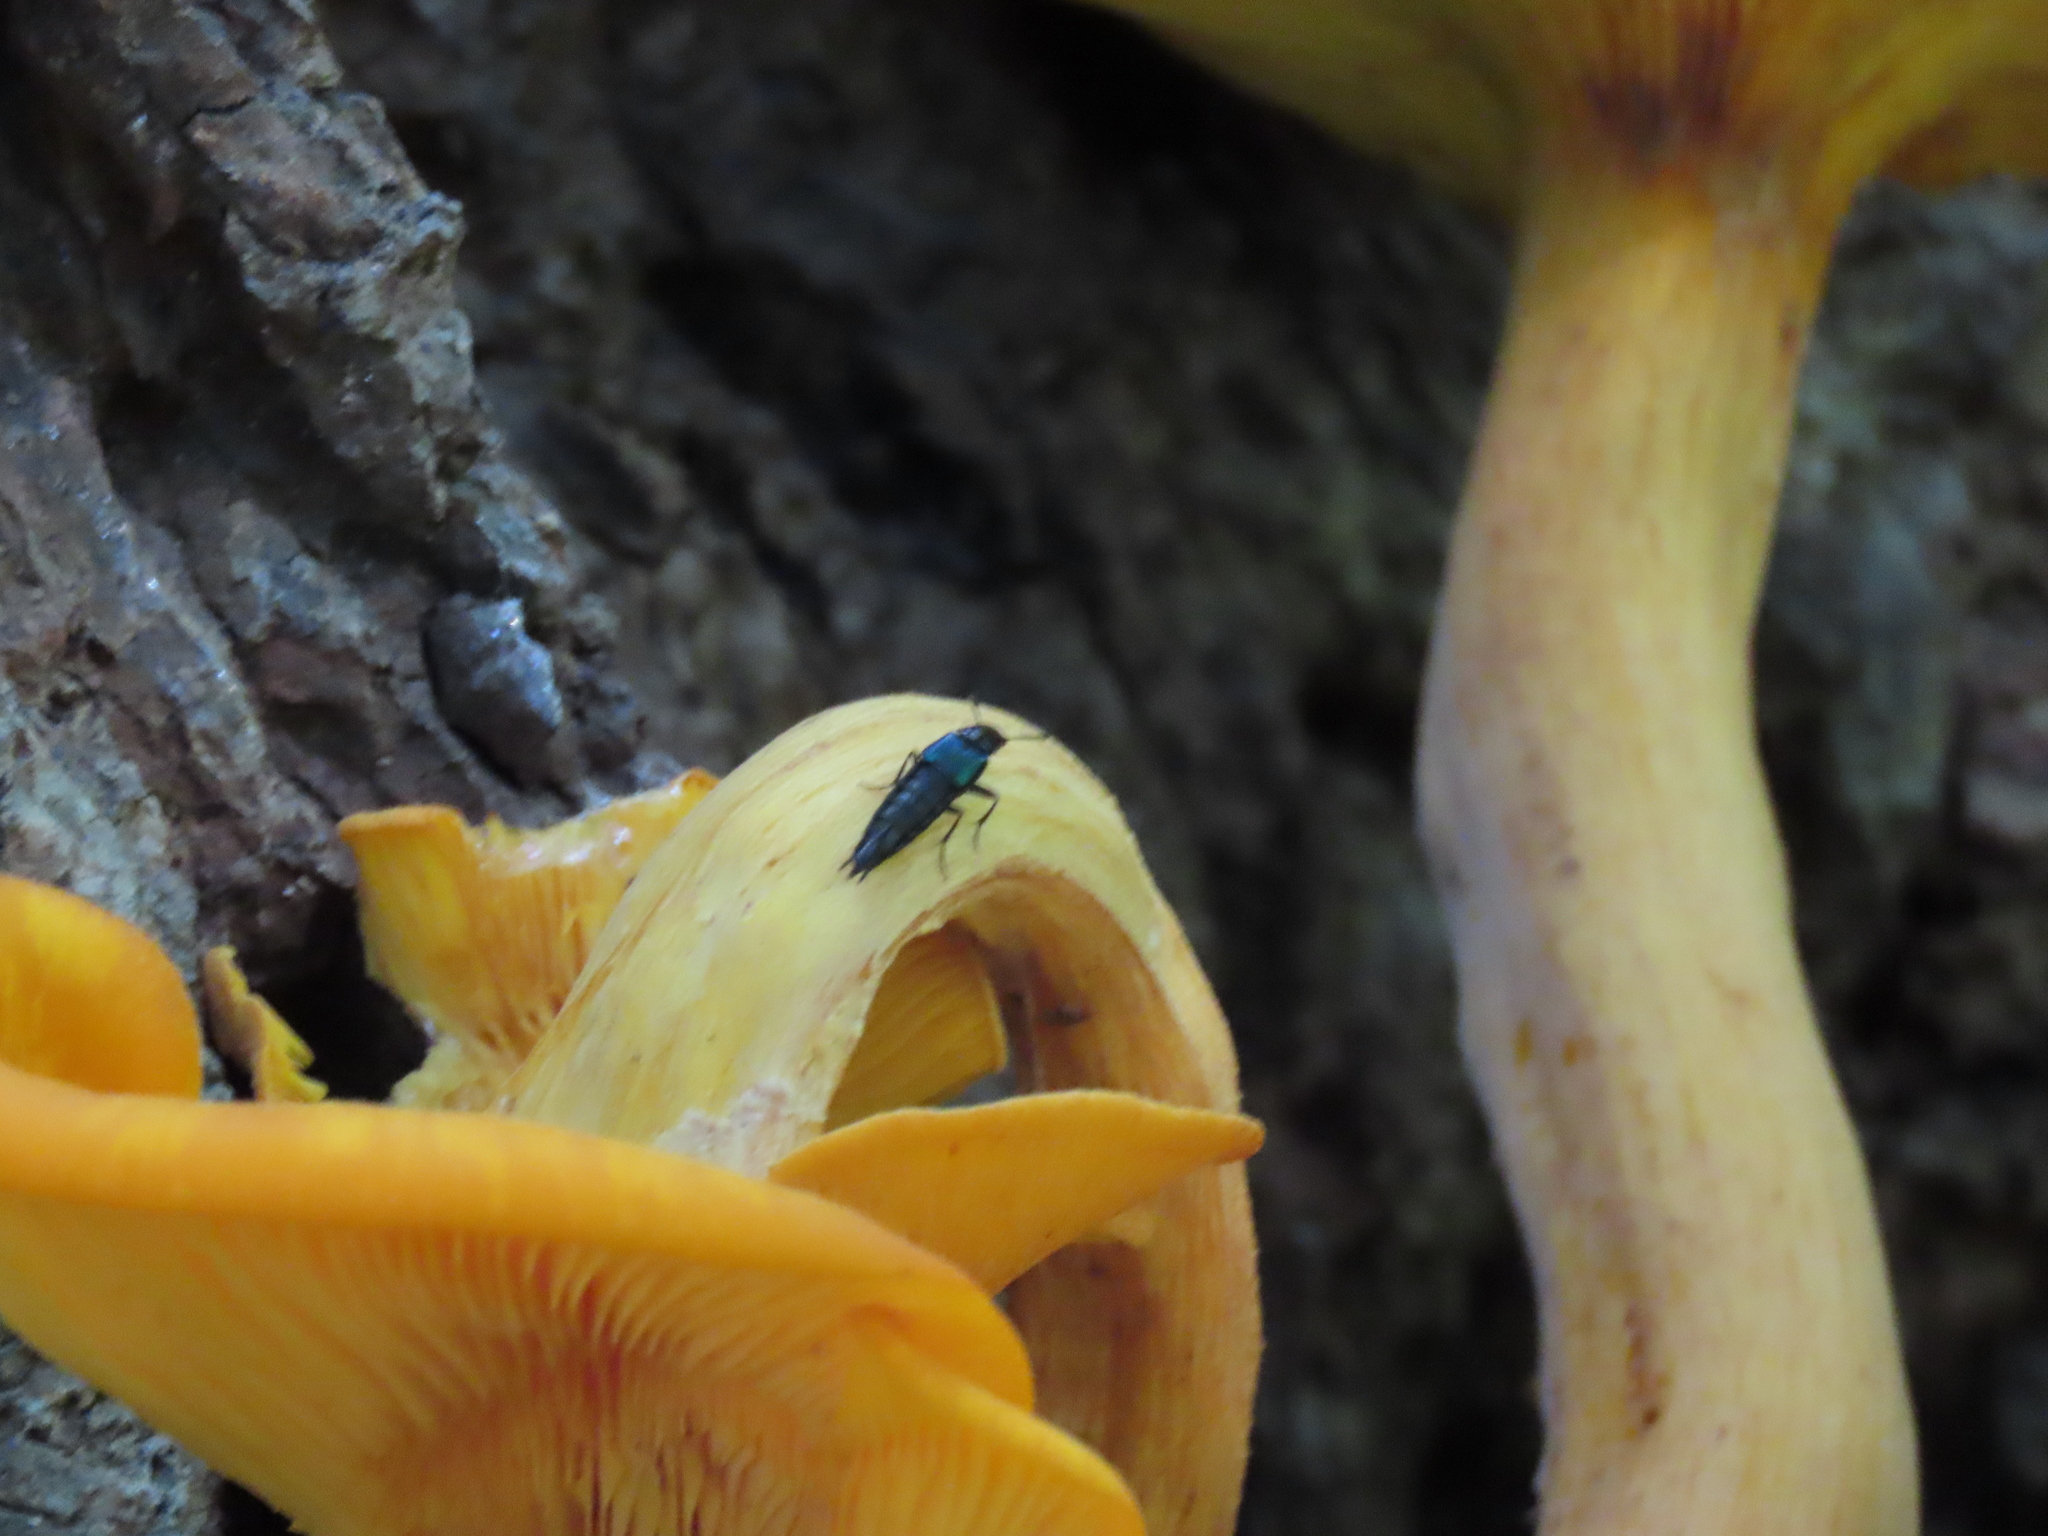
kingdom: Animalia
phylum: Arthropoda
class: Insecta
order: Coleoptera
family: Staphylinidae
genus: Philonthus
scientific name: Philonthus caeruleipennis
